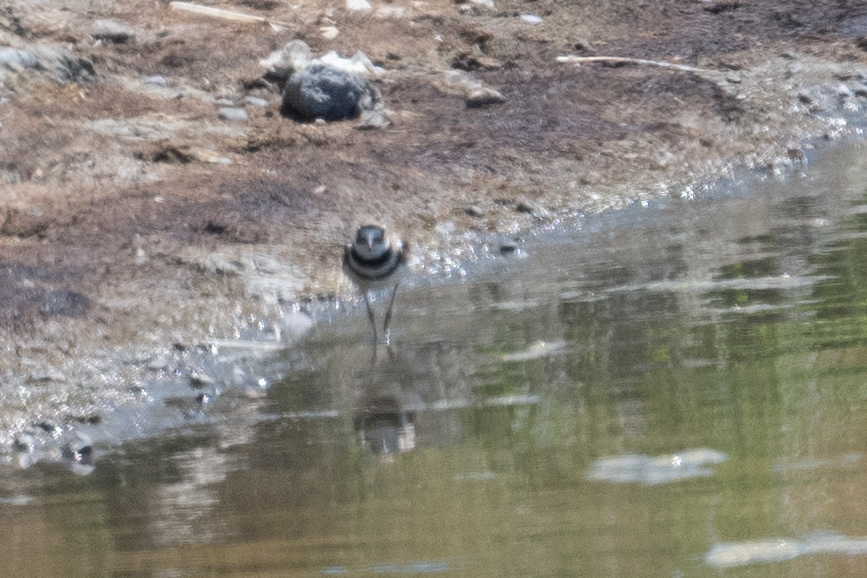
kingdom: Animalia
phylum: Chordata
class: Aves
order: Charadriiformes
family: Charadriidae
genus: Charadrius
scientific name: Charadrius vociferus
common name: Killdeer
